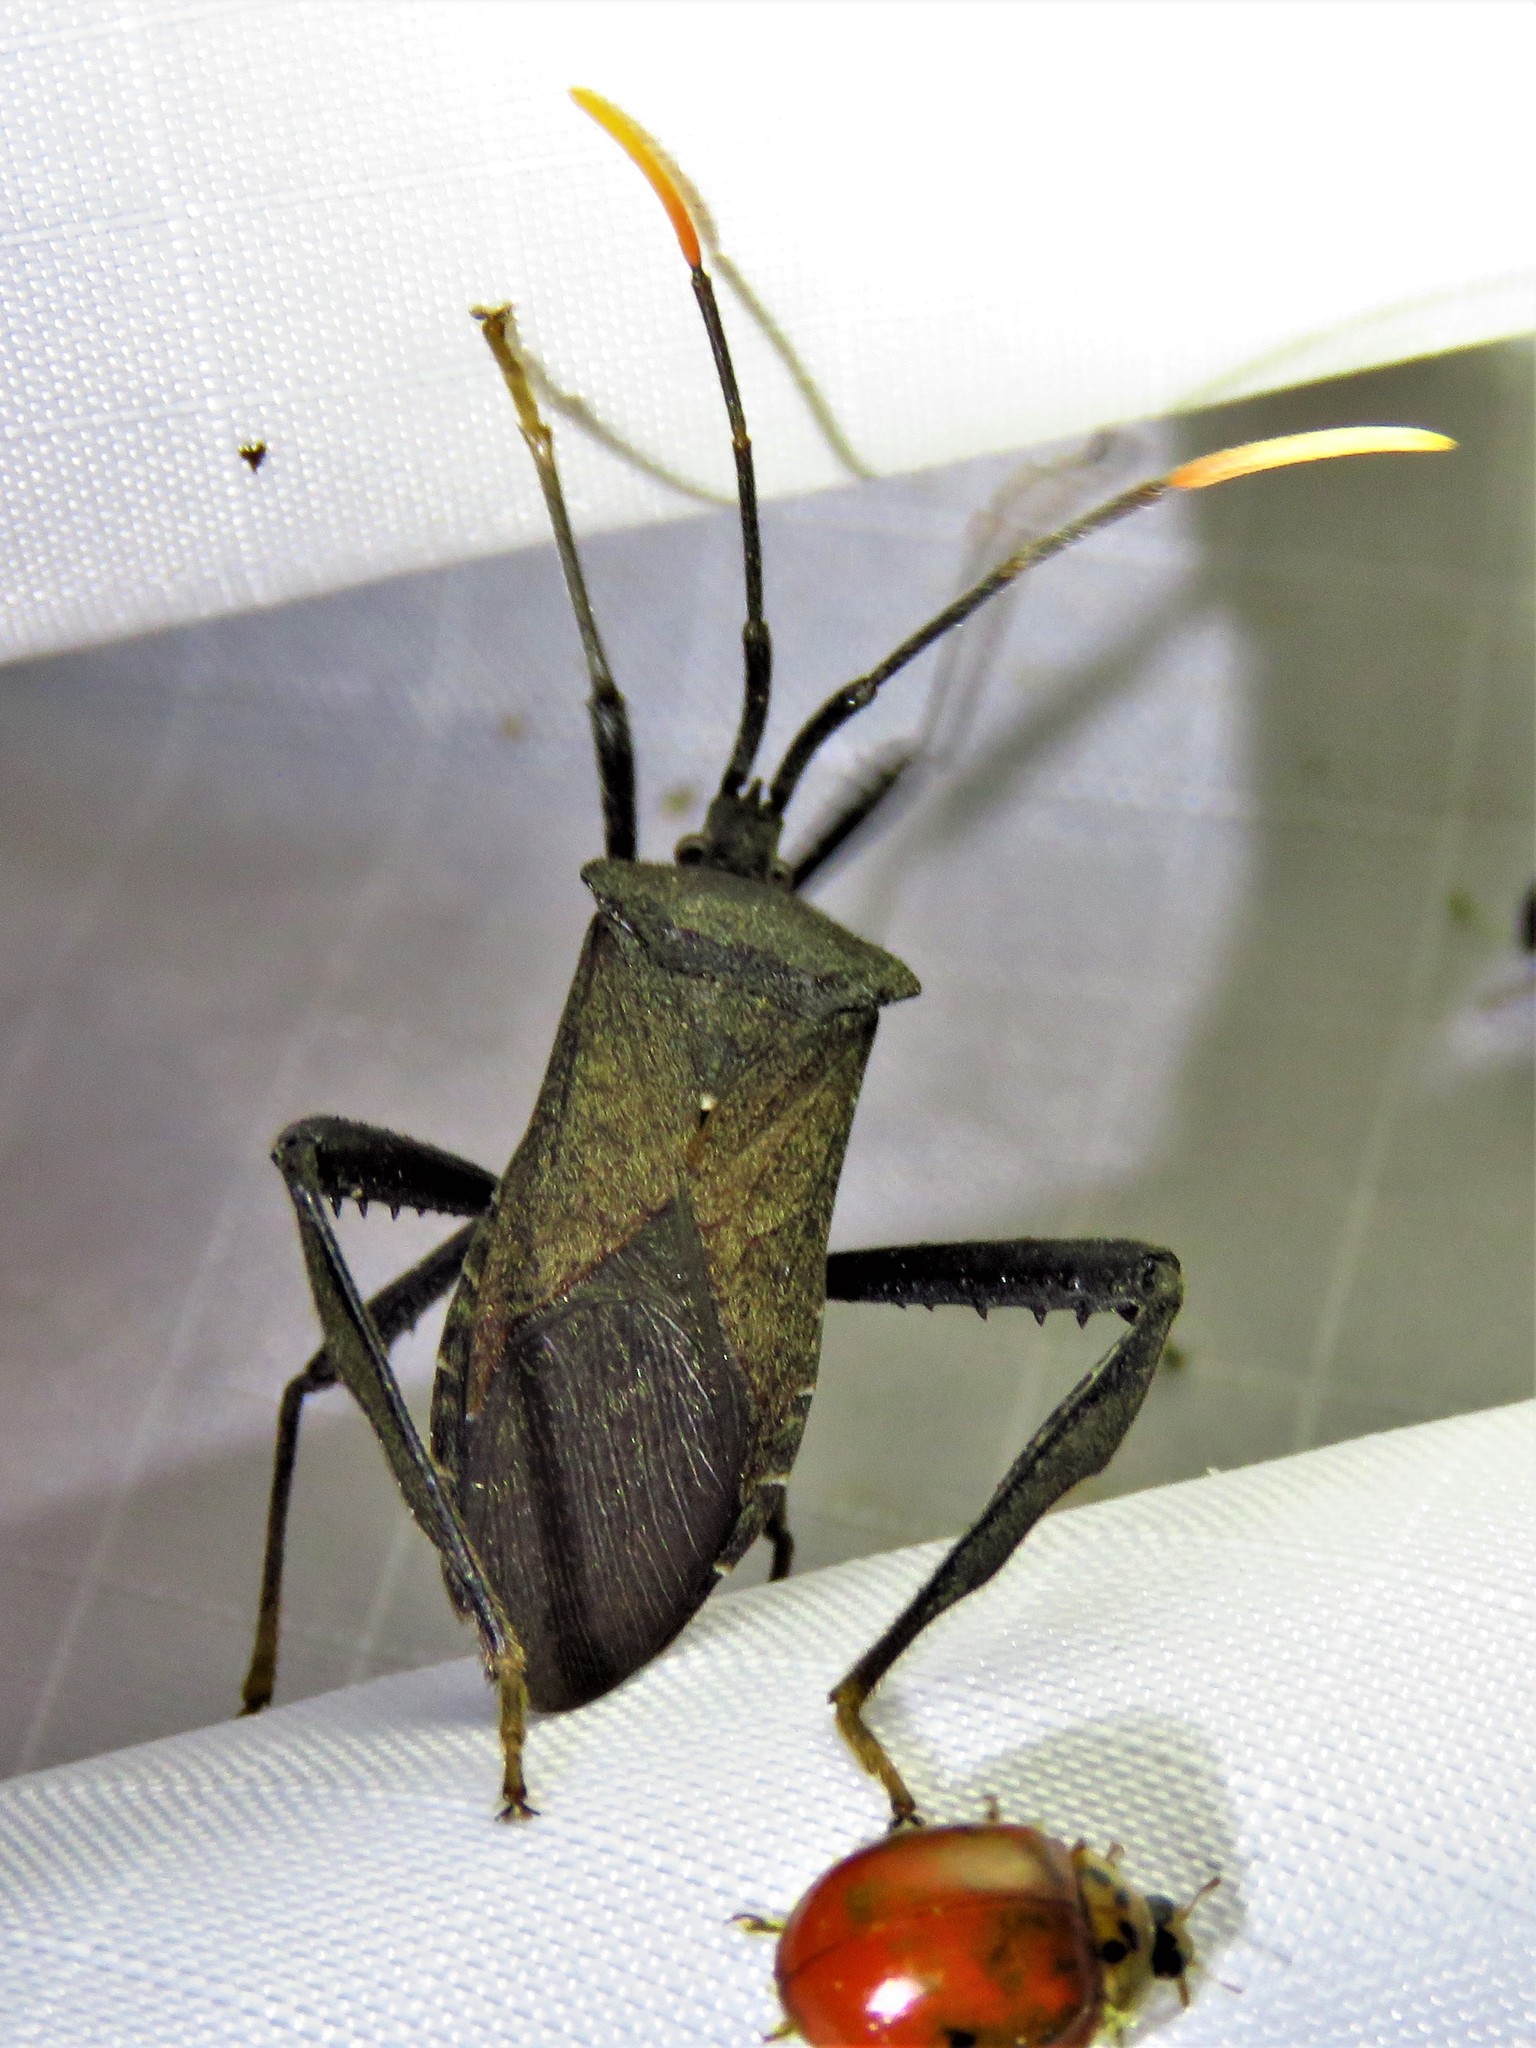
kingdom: Animalia
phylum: Arthropoda
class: Insecta
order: Hemiptera
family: Coreidae
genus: Acanthocephala
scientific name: Acanthocephala terminalis
